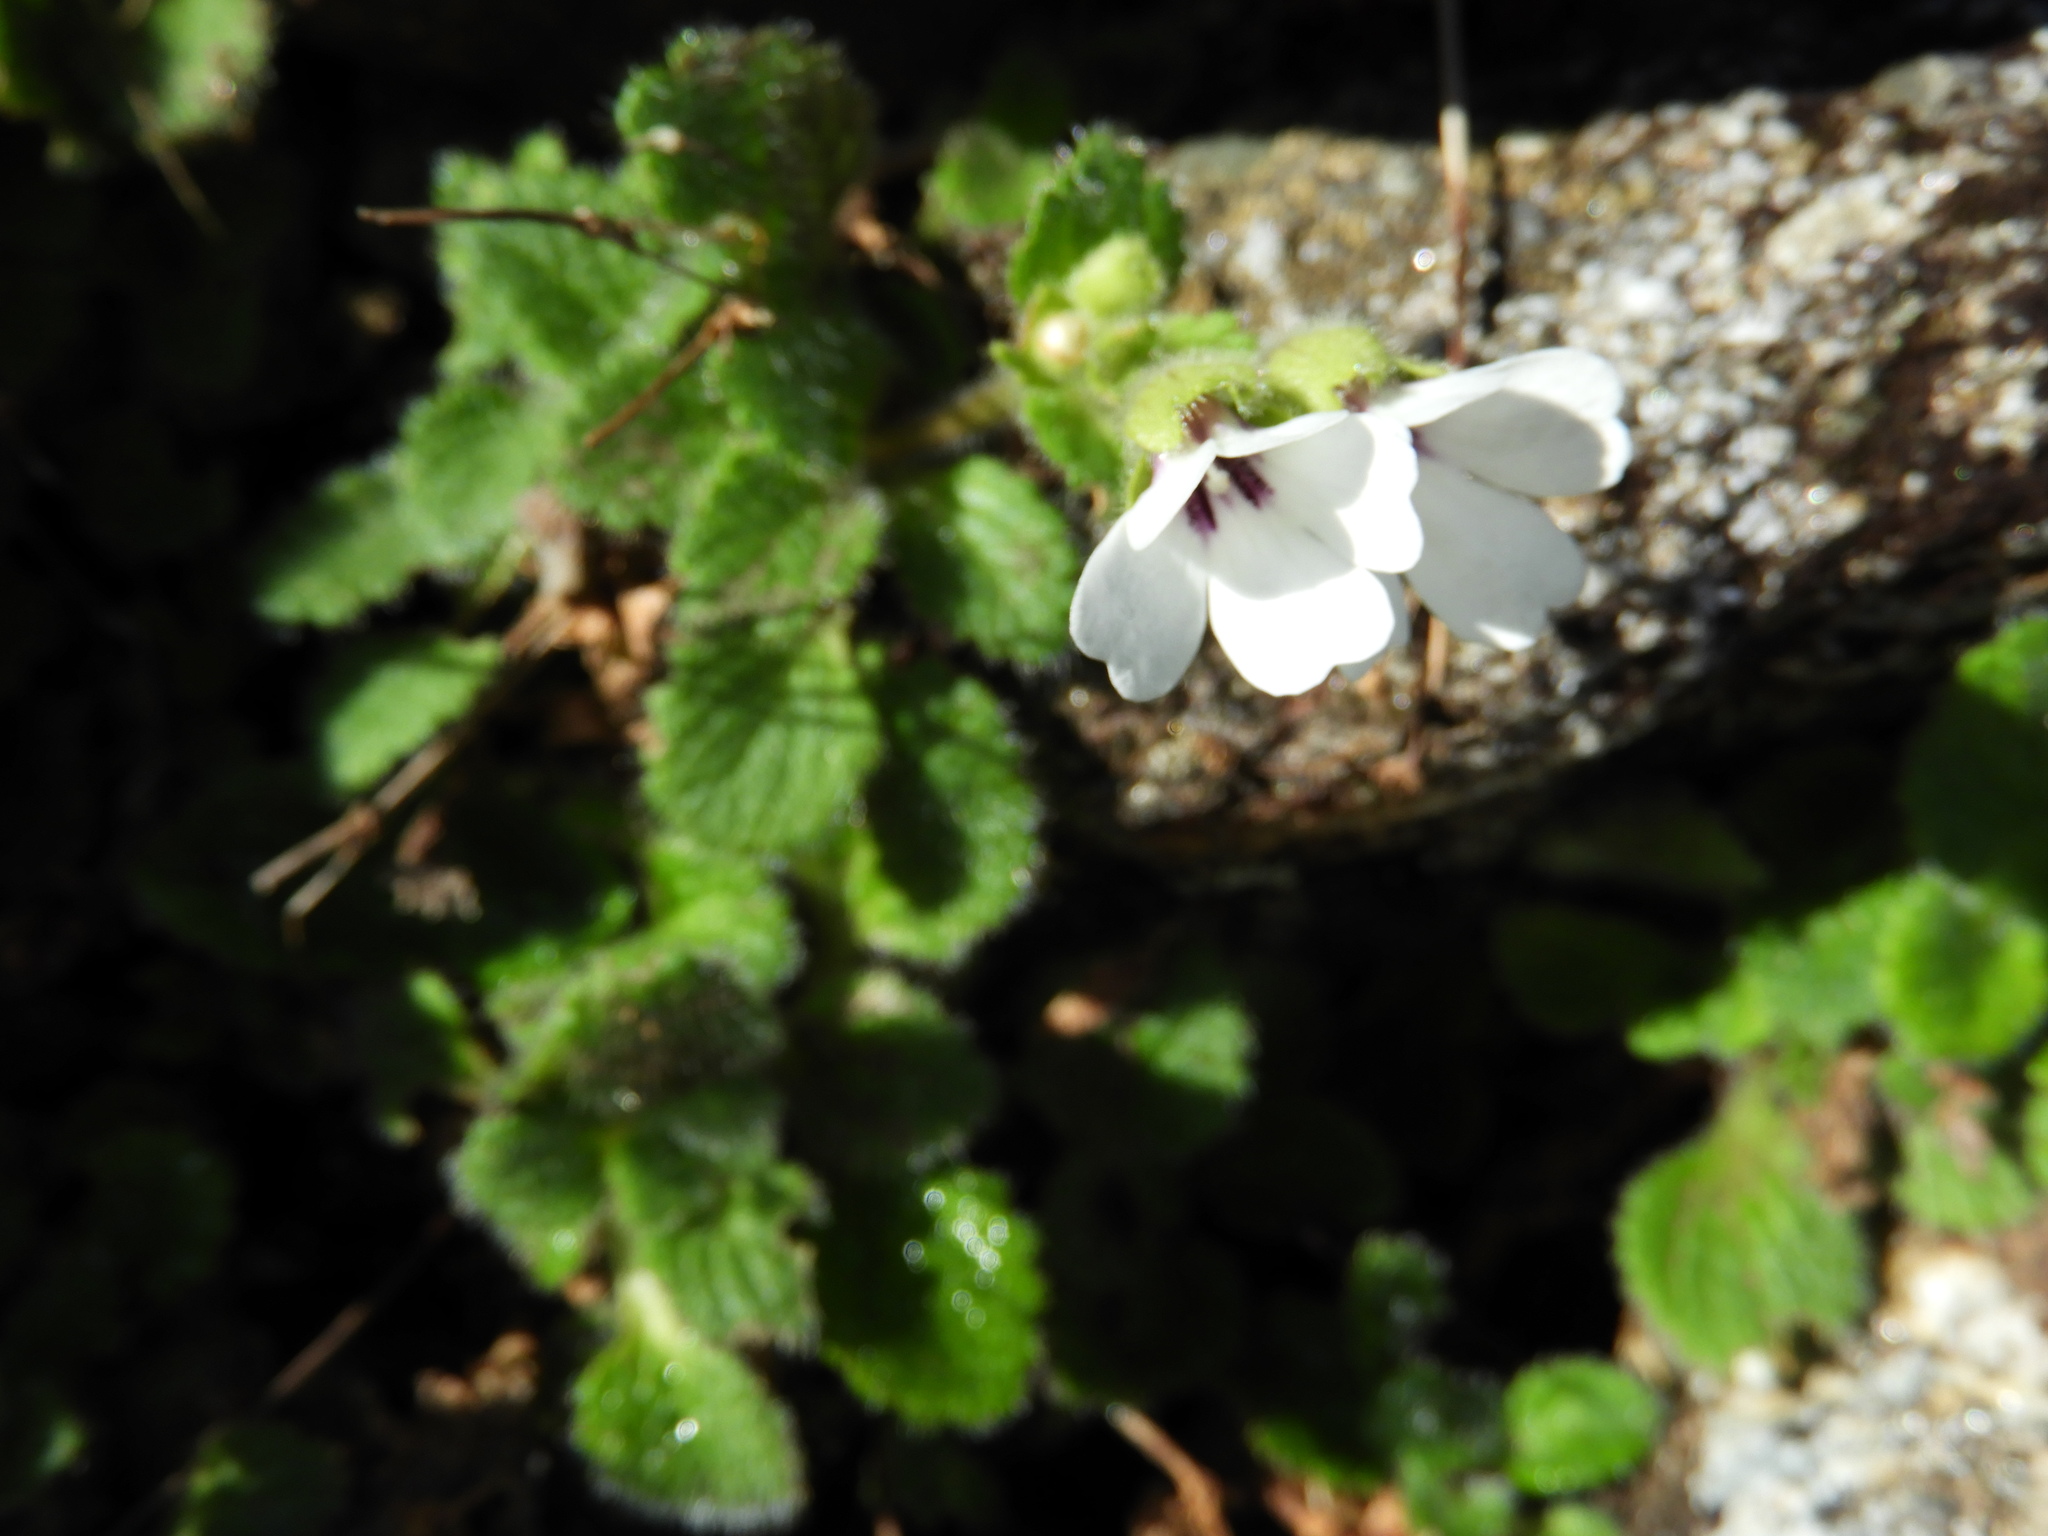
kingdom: Plantae
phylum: Tracheophyta
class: Magnoliopsida
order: Lamiales
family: Plantaginaceae
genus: Ourisia
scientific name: Ourisia remotifolia
